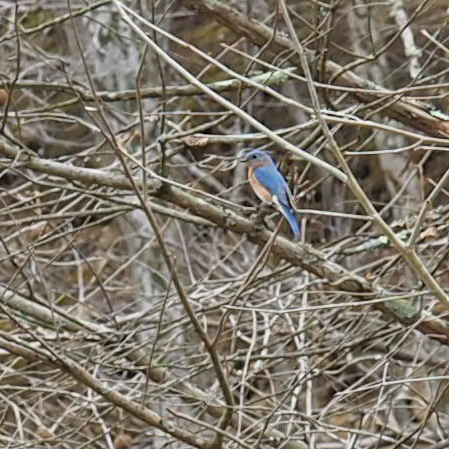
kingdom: Animalia
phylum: Chordata
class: Aves
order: Passeriformes
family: Turdidae
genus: Sialia
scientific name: Sialia sialis
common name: Eastern bluebird
